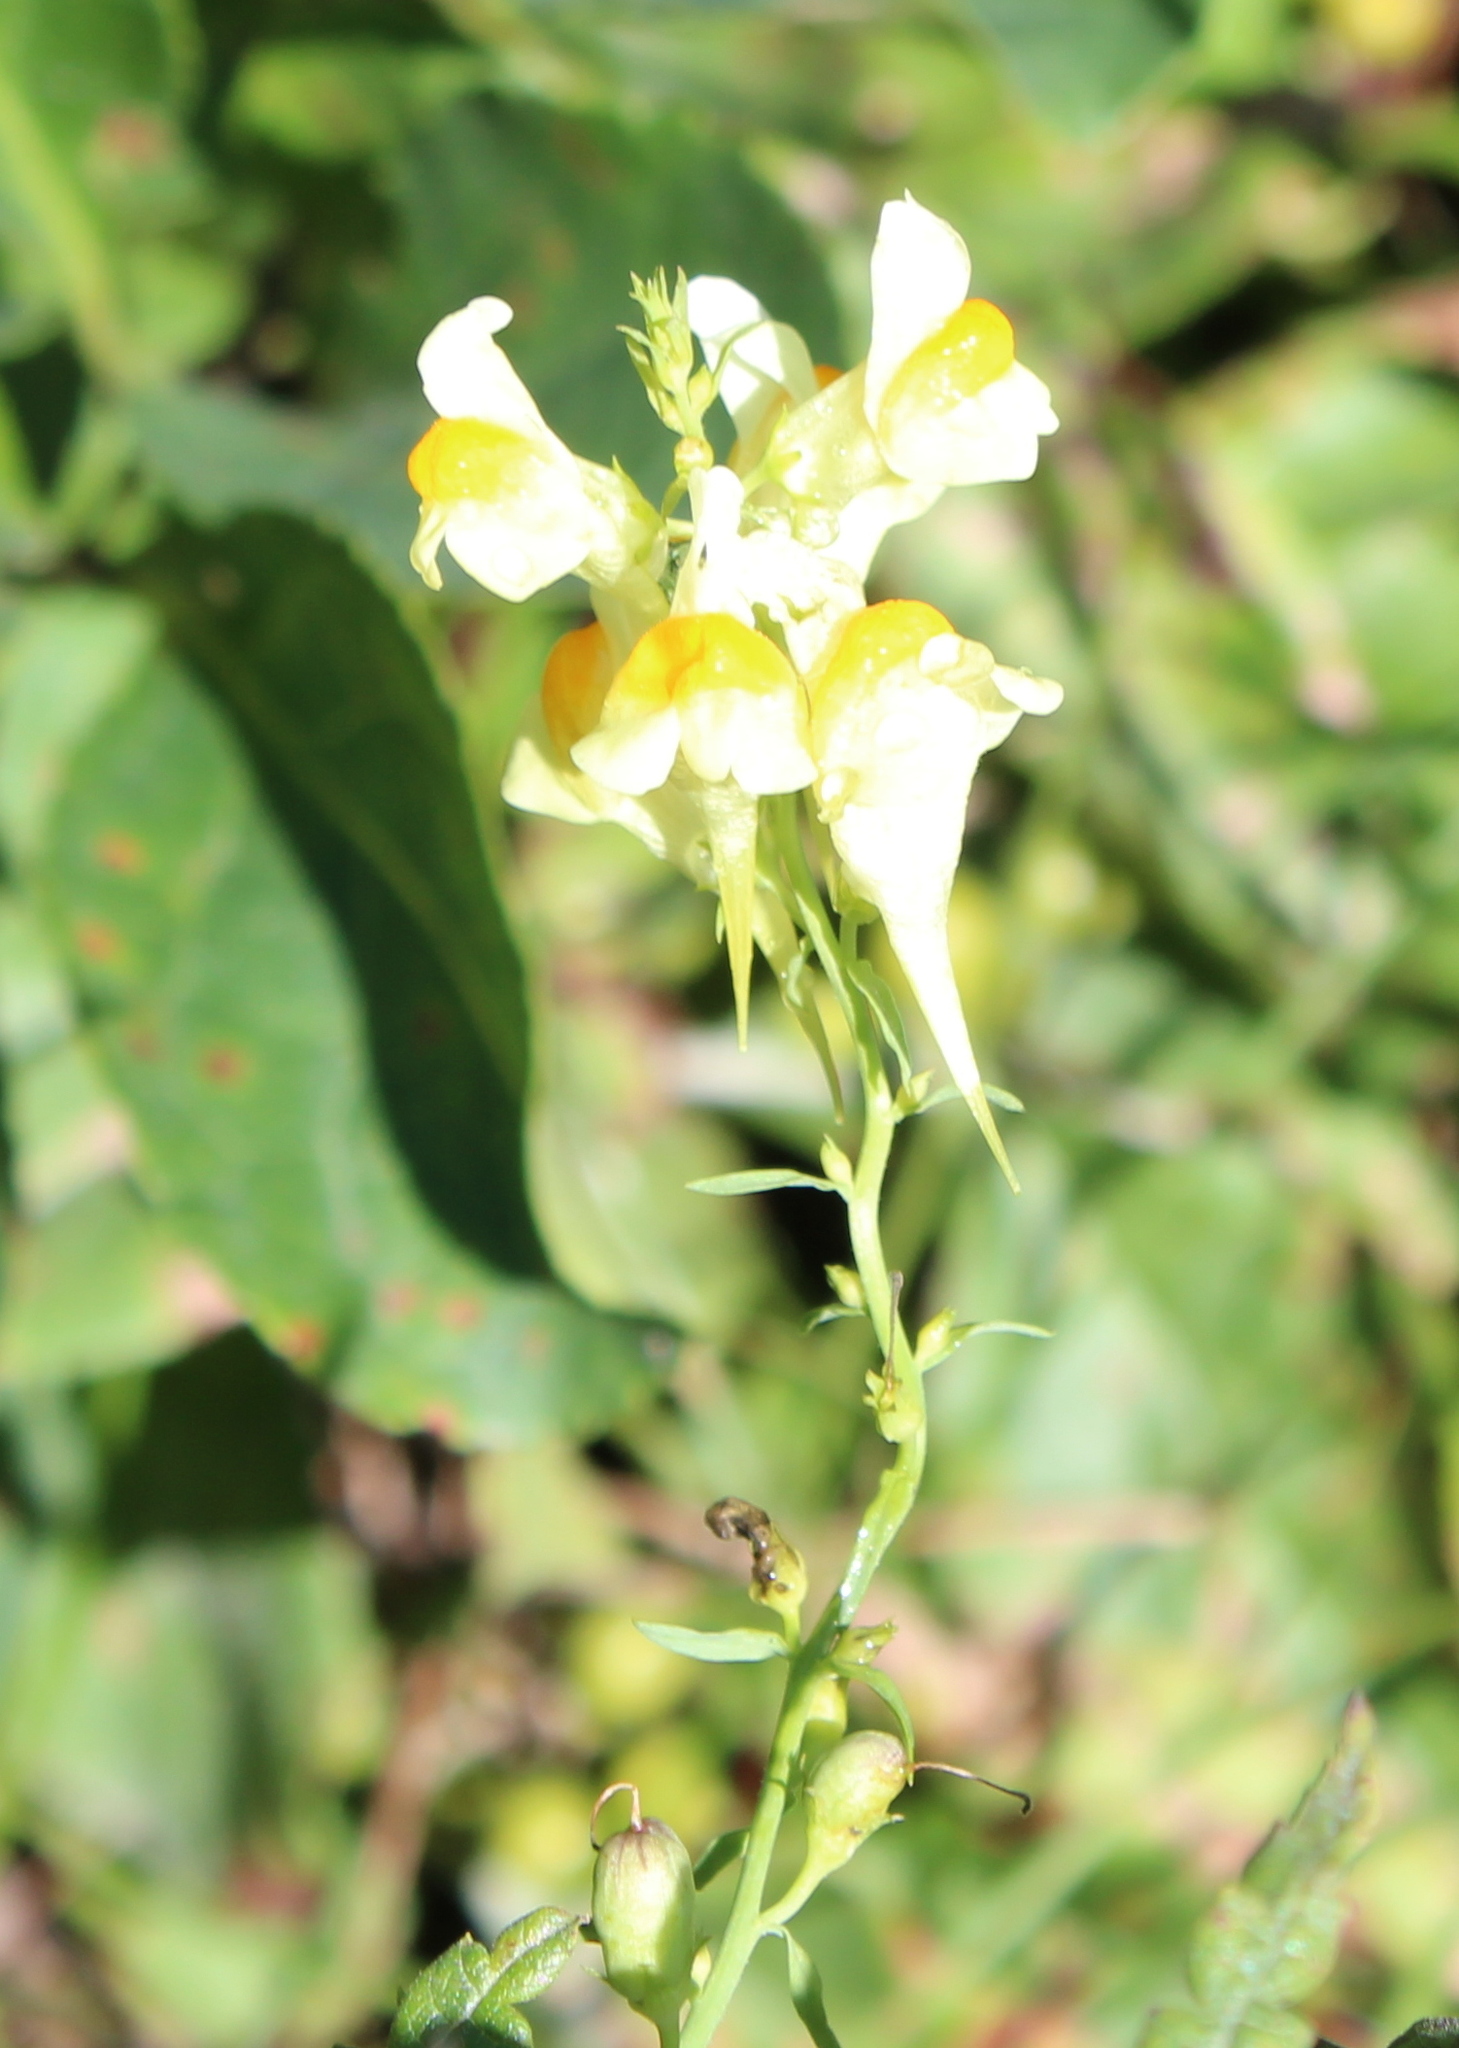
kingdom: Plantae
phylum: Tracheophyta
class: Magnoliopsida
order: Lamiales
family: Plantaginaceae
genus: Linaria
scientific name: Linaria vulgaris
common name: Butter and eggs
